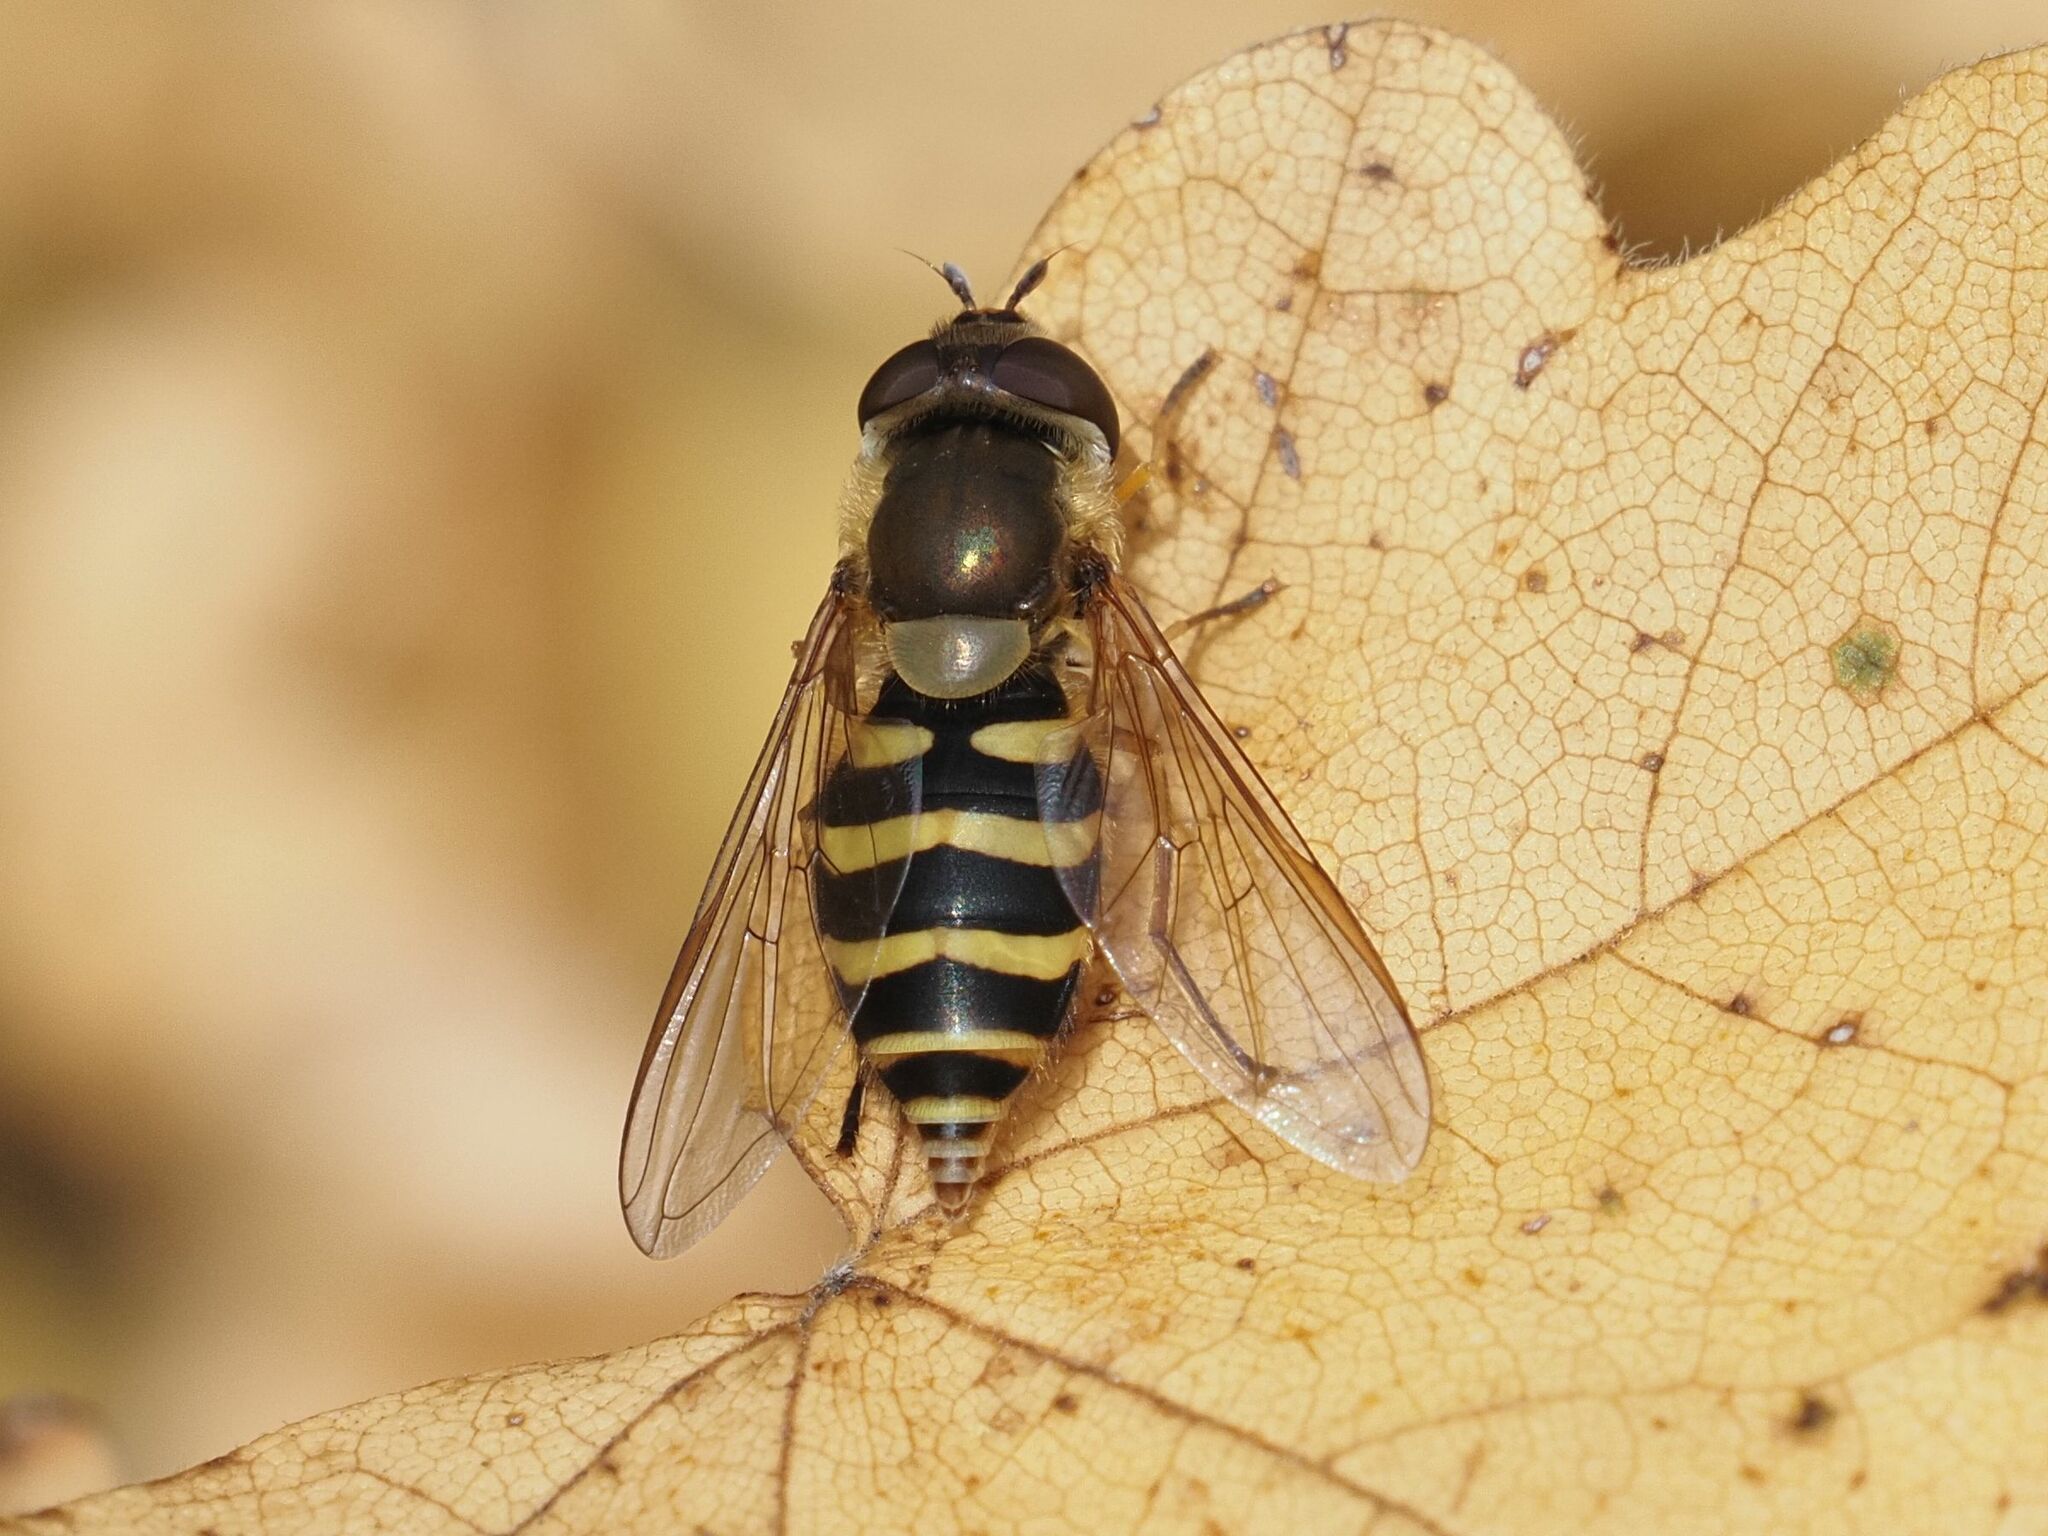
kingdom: Animalia
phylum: Arthropoda
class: Insecta
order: Diptera
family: Syrphidae
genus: Syrphus
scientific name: Syrphus
